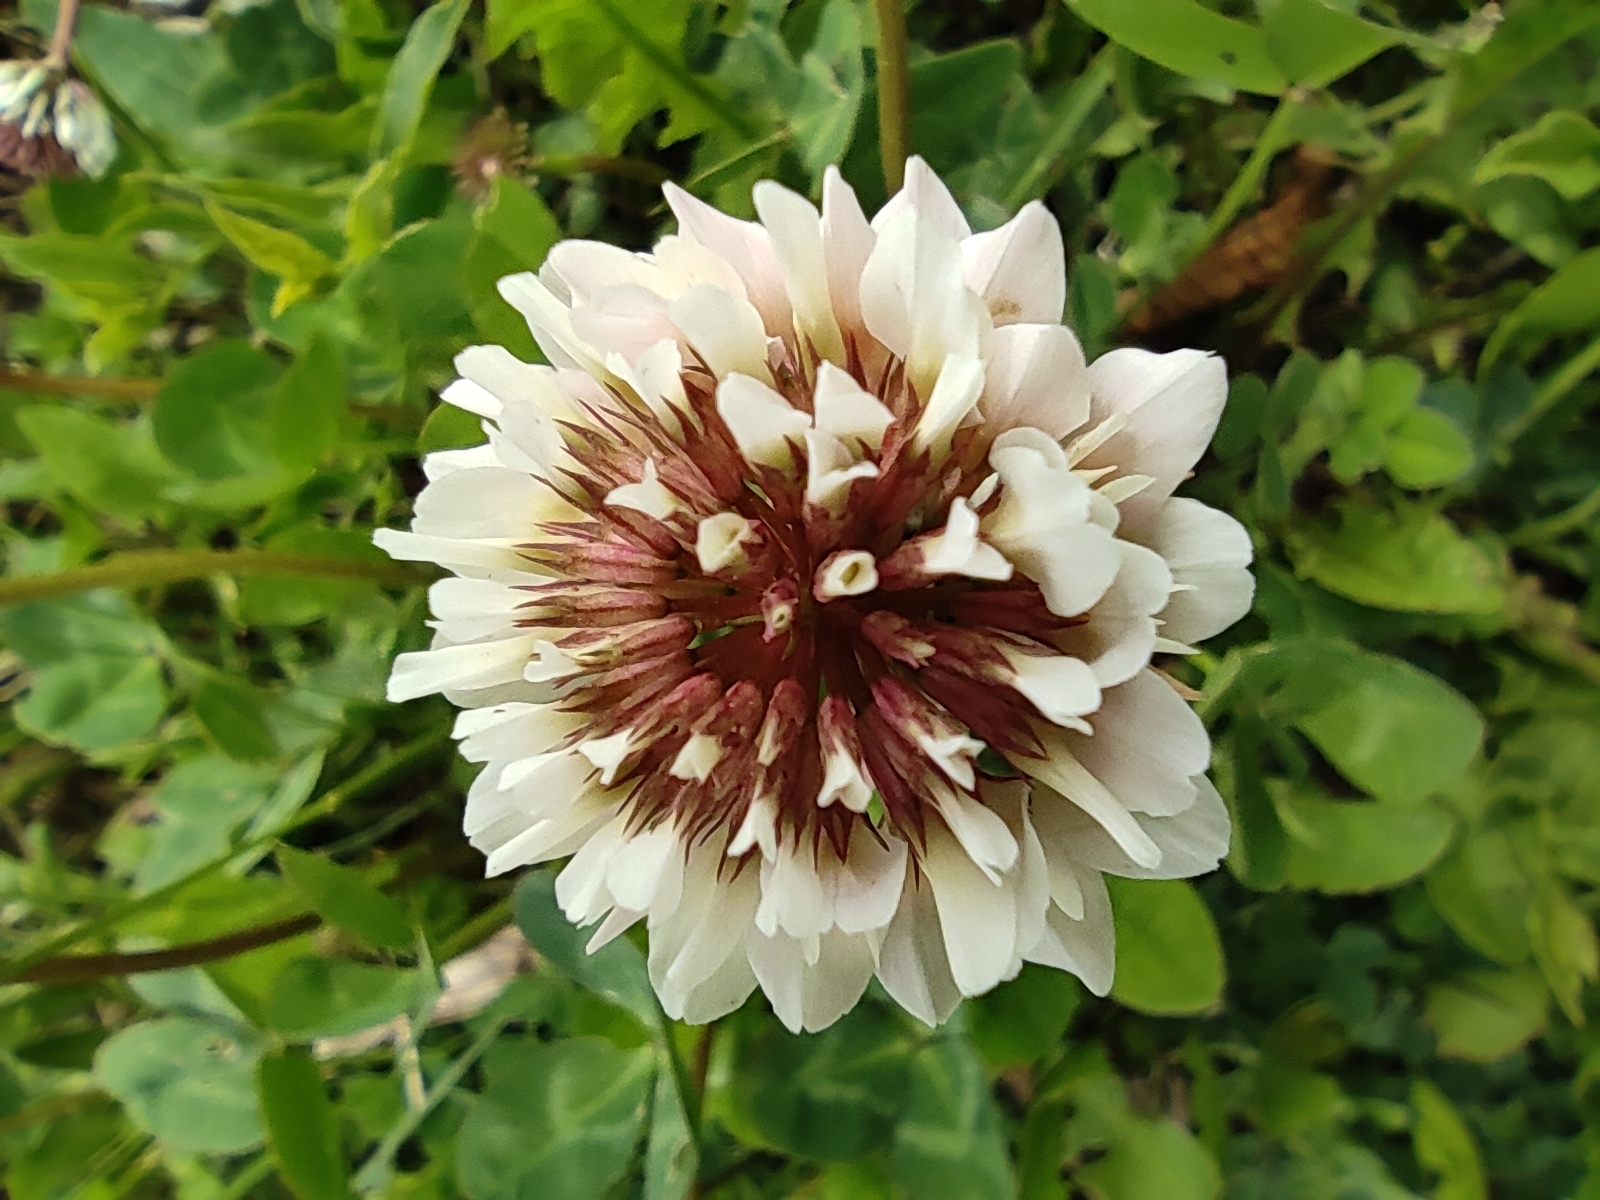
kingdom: Plantae
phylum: Tracheophyta
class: Magnoliopsida
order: Fabales
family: Fabaceae
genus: Trifolium
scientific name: Trifolium repens
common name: White clover
